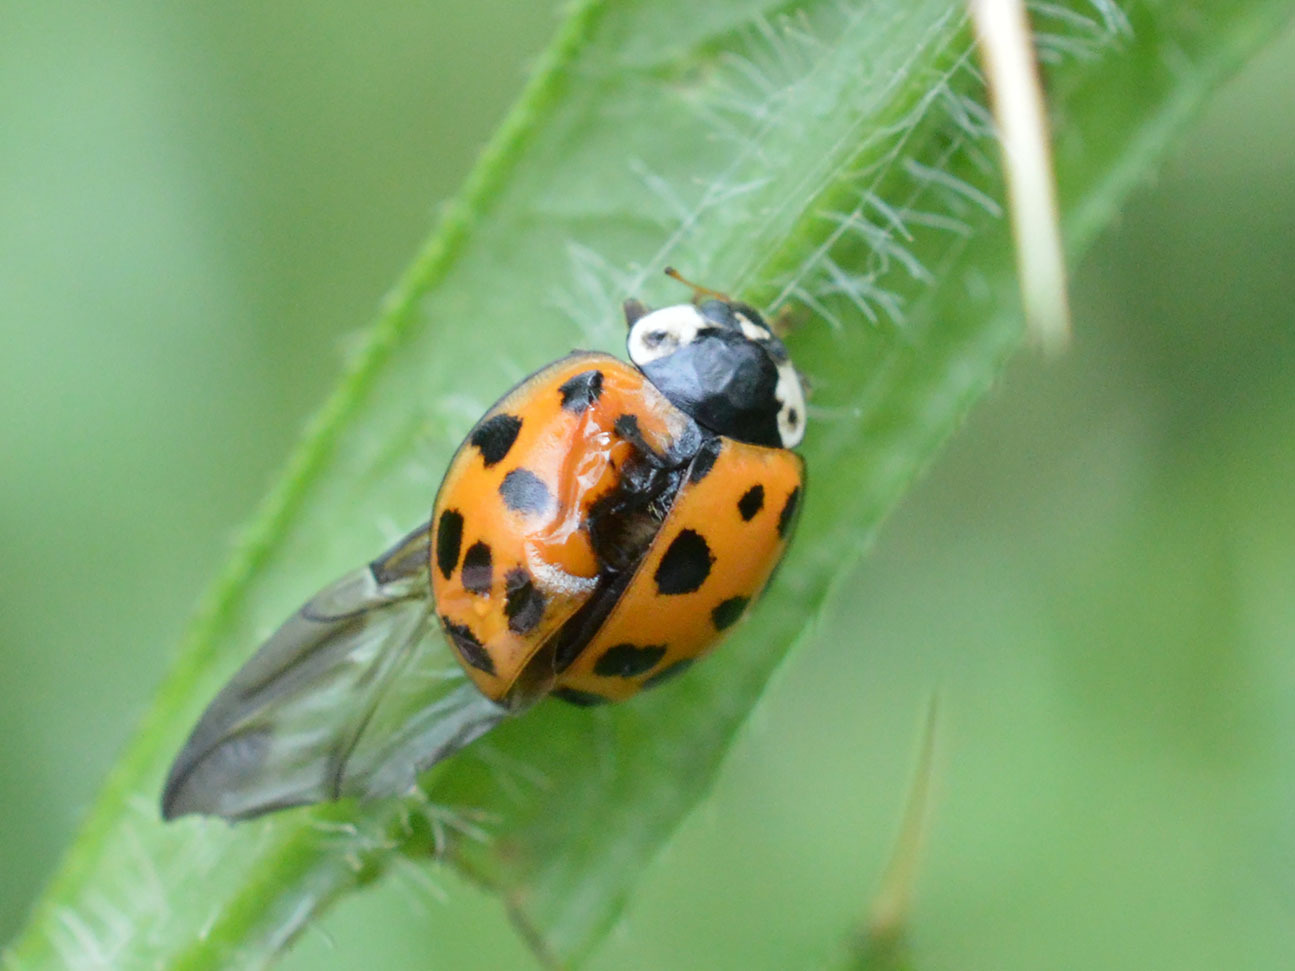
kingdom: Animalia
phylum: Arthropoda
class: Insecta
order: Coleoptera
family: Coccinellidae
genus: Harmonia
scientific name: Harmonia axyridis
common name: Harlequin ladybird
